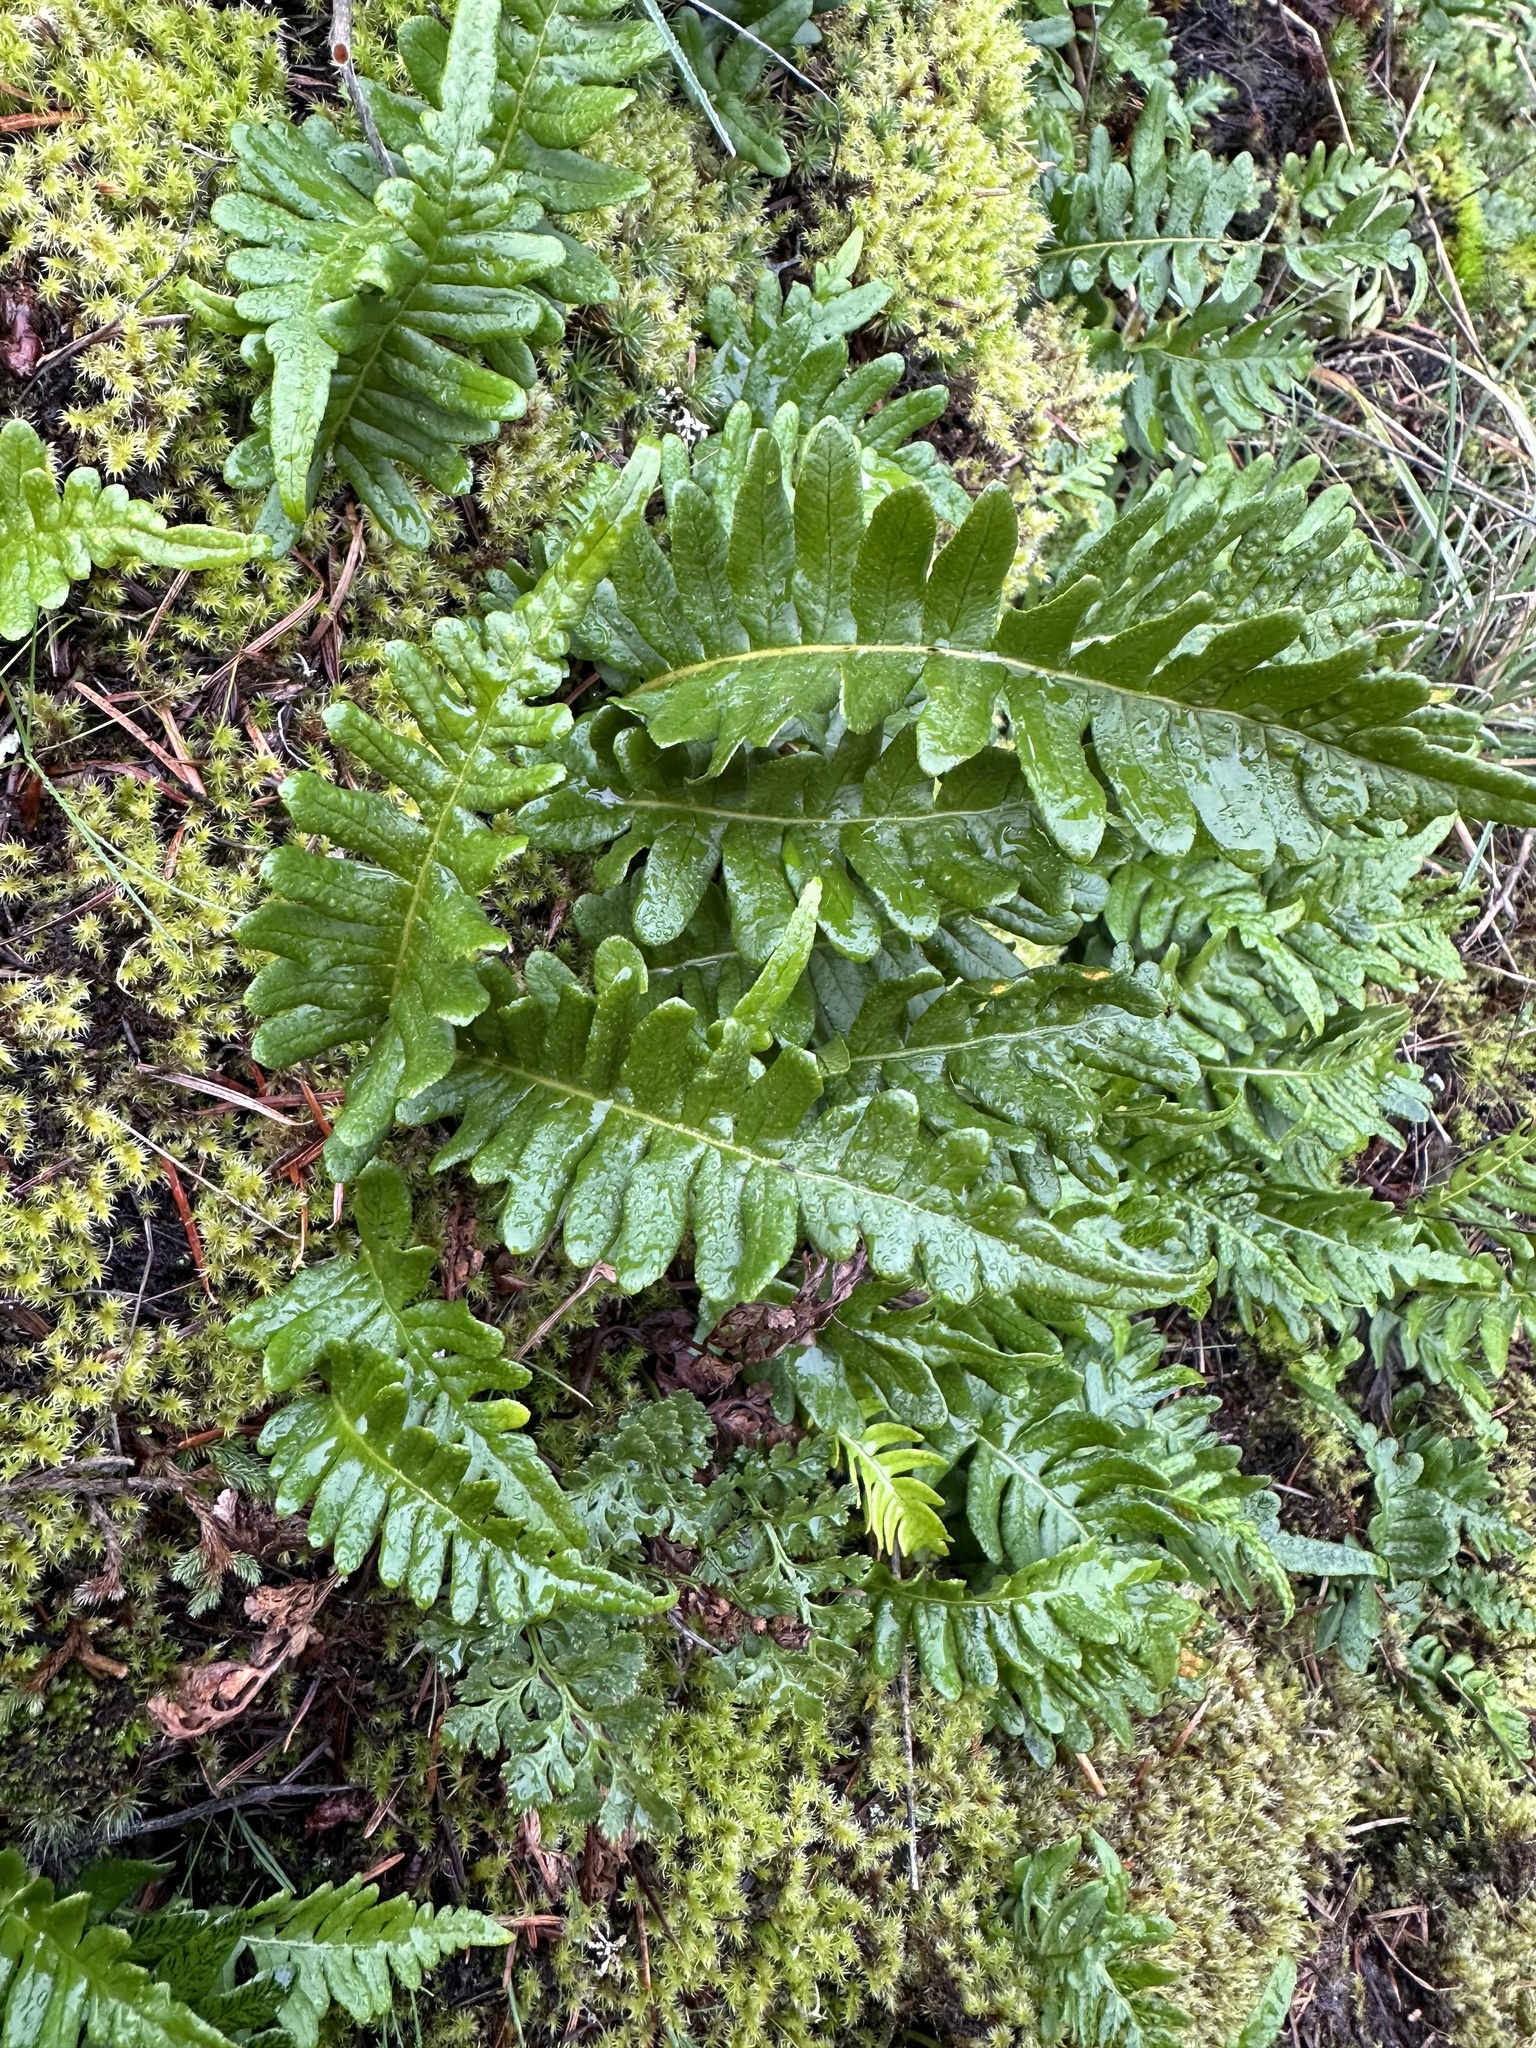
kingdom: Plantae
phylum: Tracheophyta
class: Polypodiopsida
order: Polypodiales
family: Polypodiaceae
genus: Polypodium
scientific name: Polypodium glycyrrhiza
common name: Licorice fern
